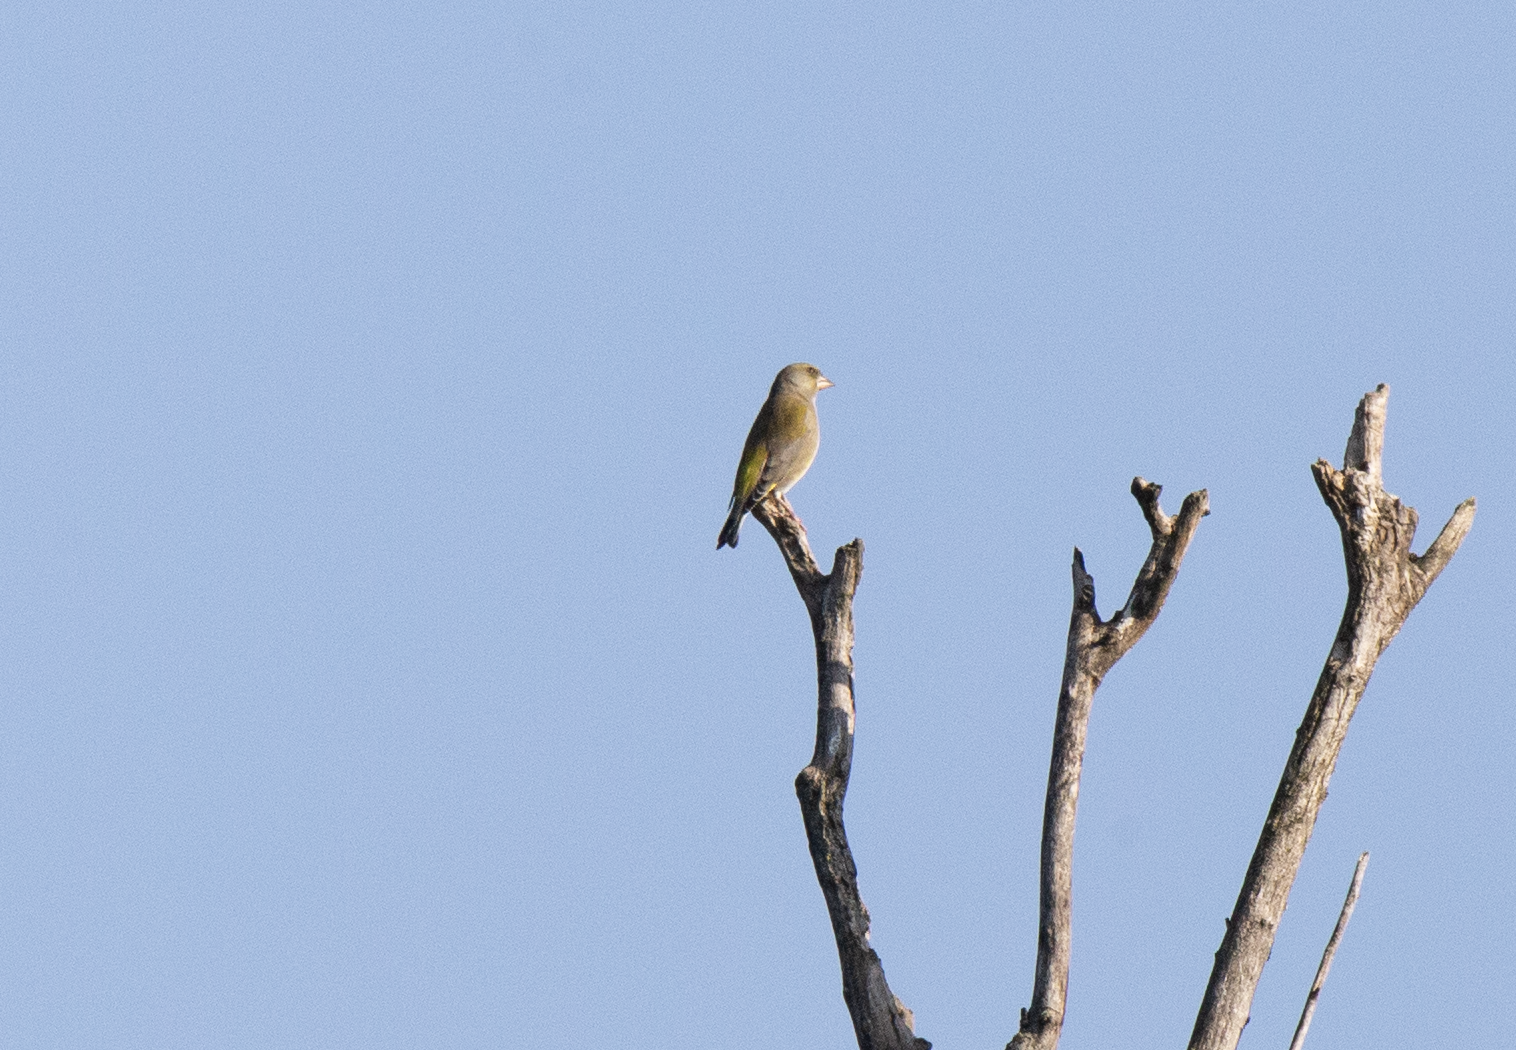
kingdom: Plantae
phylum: Tracheophyta
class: Liliopsida
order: Poales
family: Poaceae
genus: Chloris
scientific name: Chloris chloris
